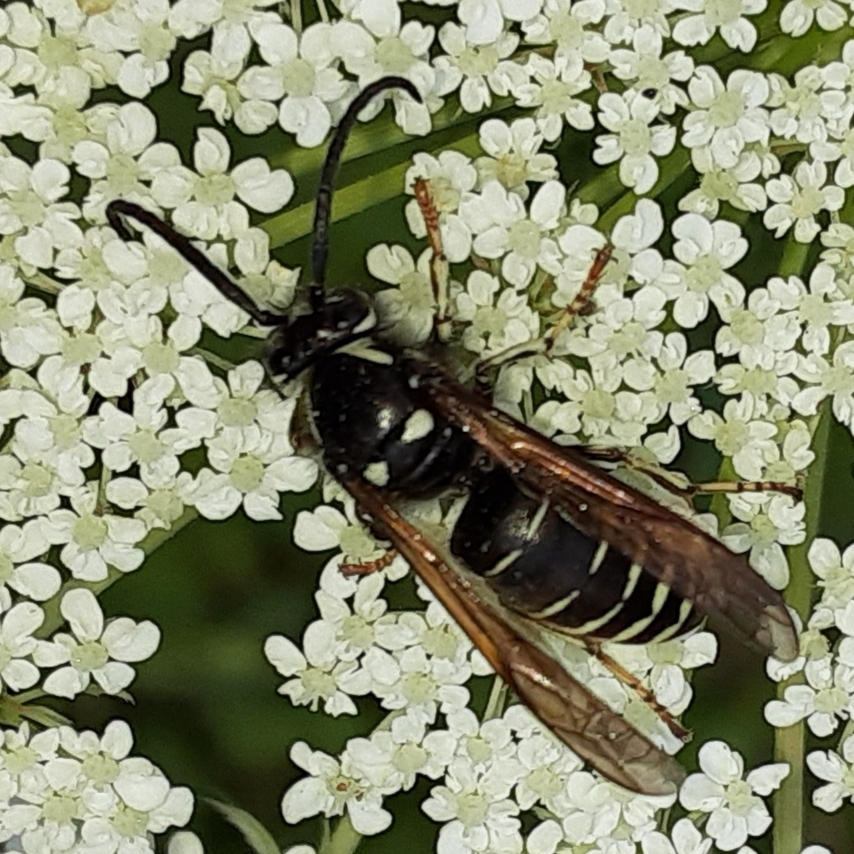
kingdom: Animalia
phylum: Arthropoda
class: Insecta
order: Hymenoptera
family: Vespidae
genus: Dolichovespula
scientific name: Dolichovespula adulterina
